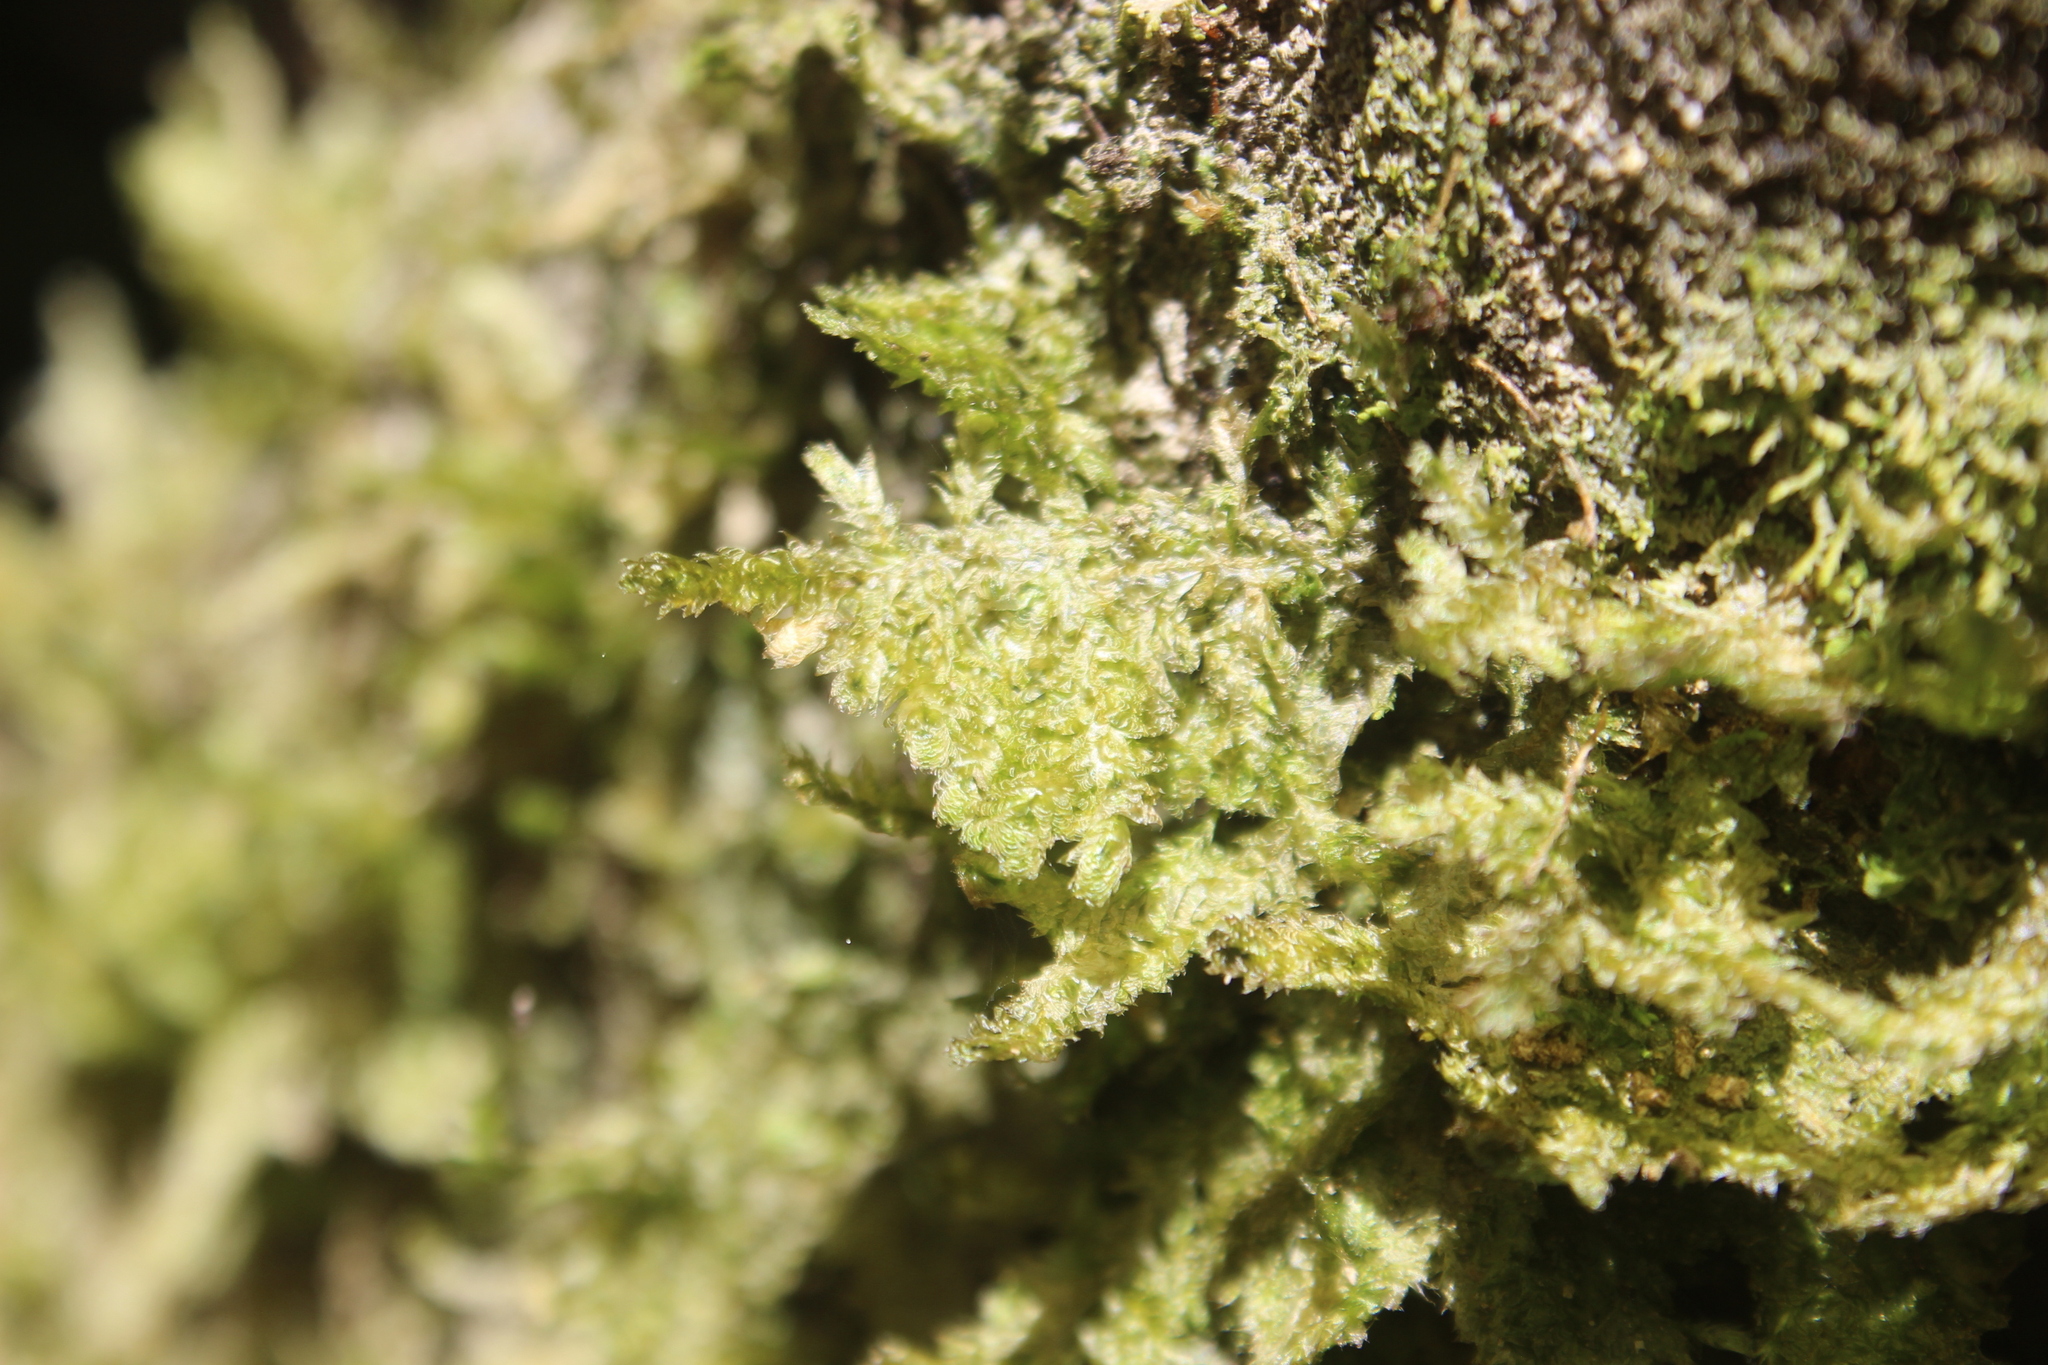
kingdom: Plantae
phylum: Bryophyta
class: Bryopsida
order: Hypnales
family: Neckeraceae
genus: Alleniella
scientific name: Alleniella hymenodonta
